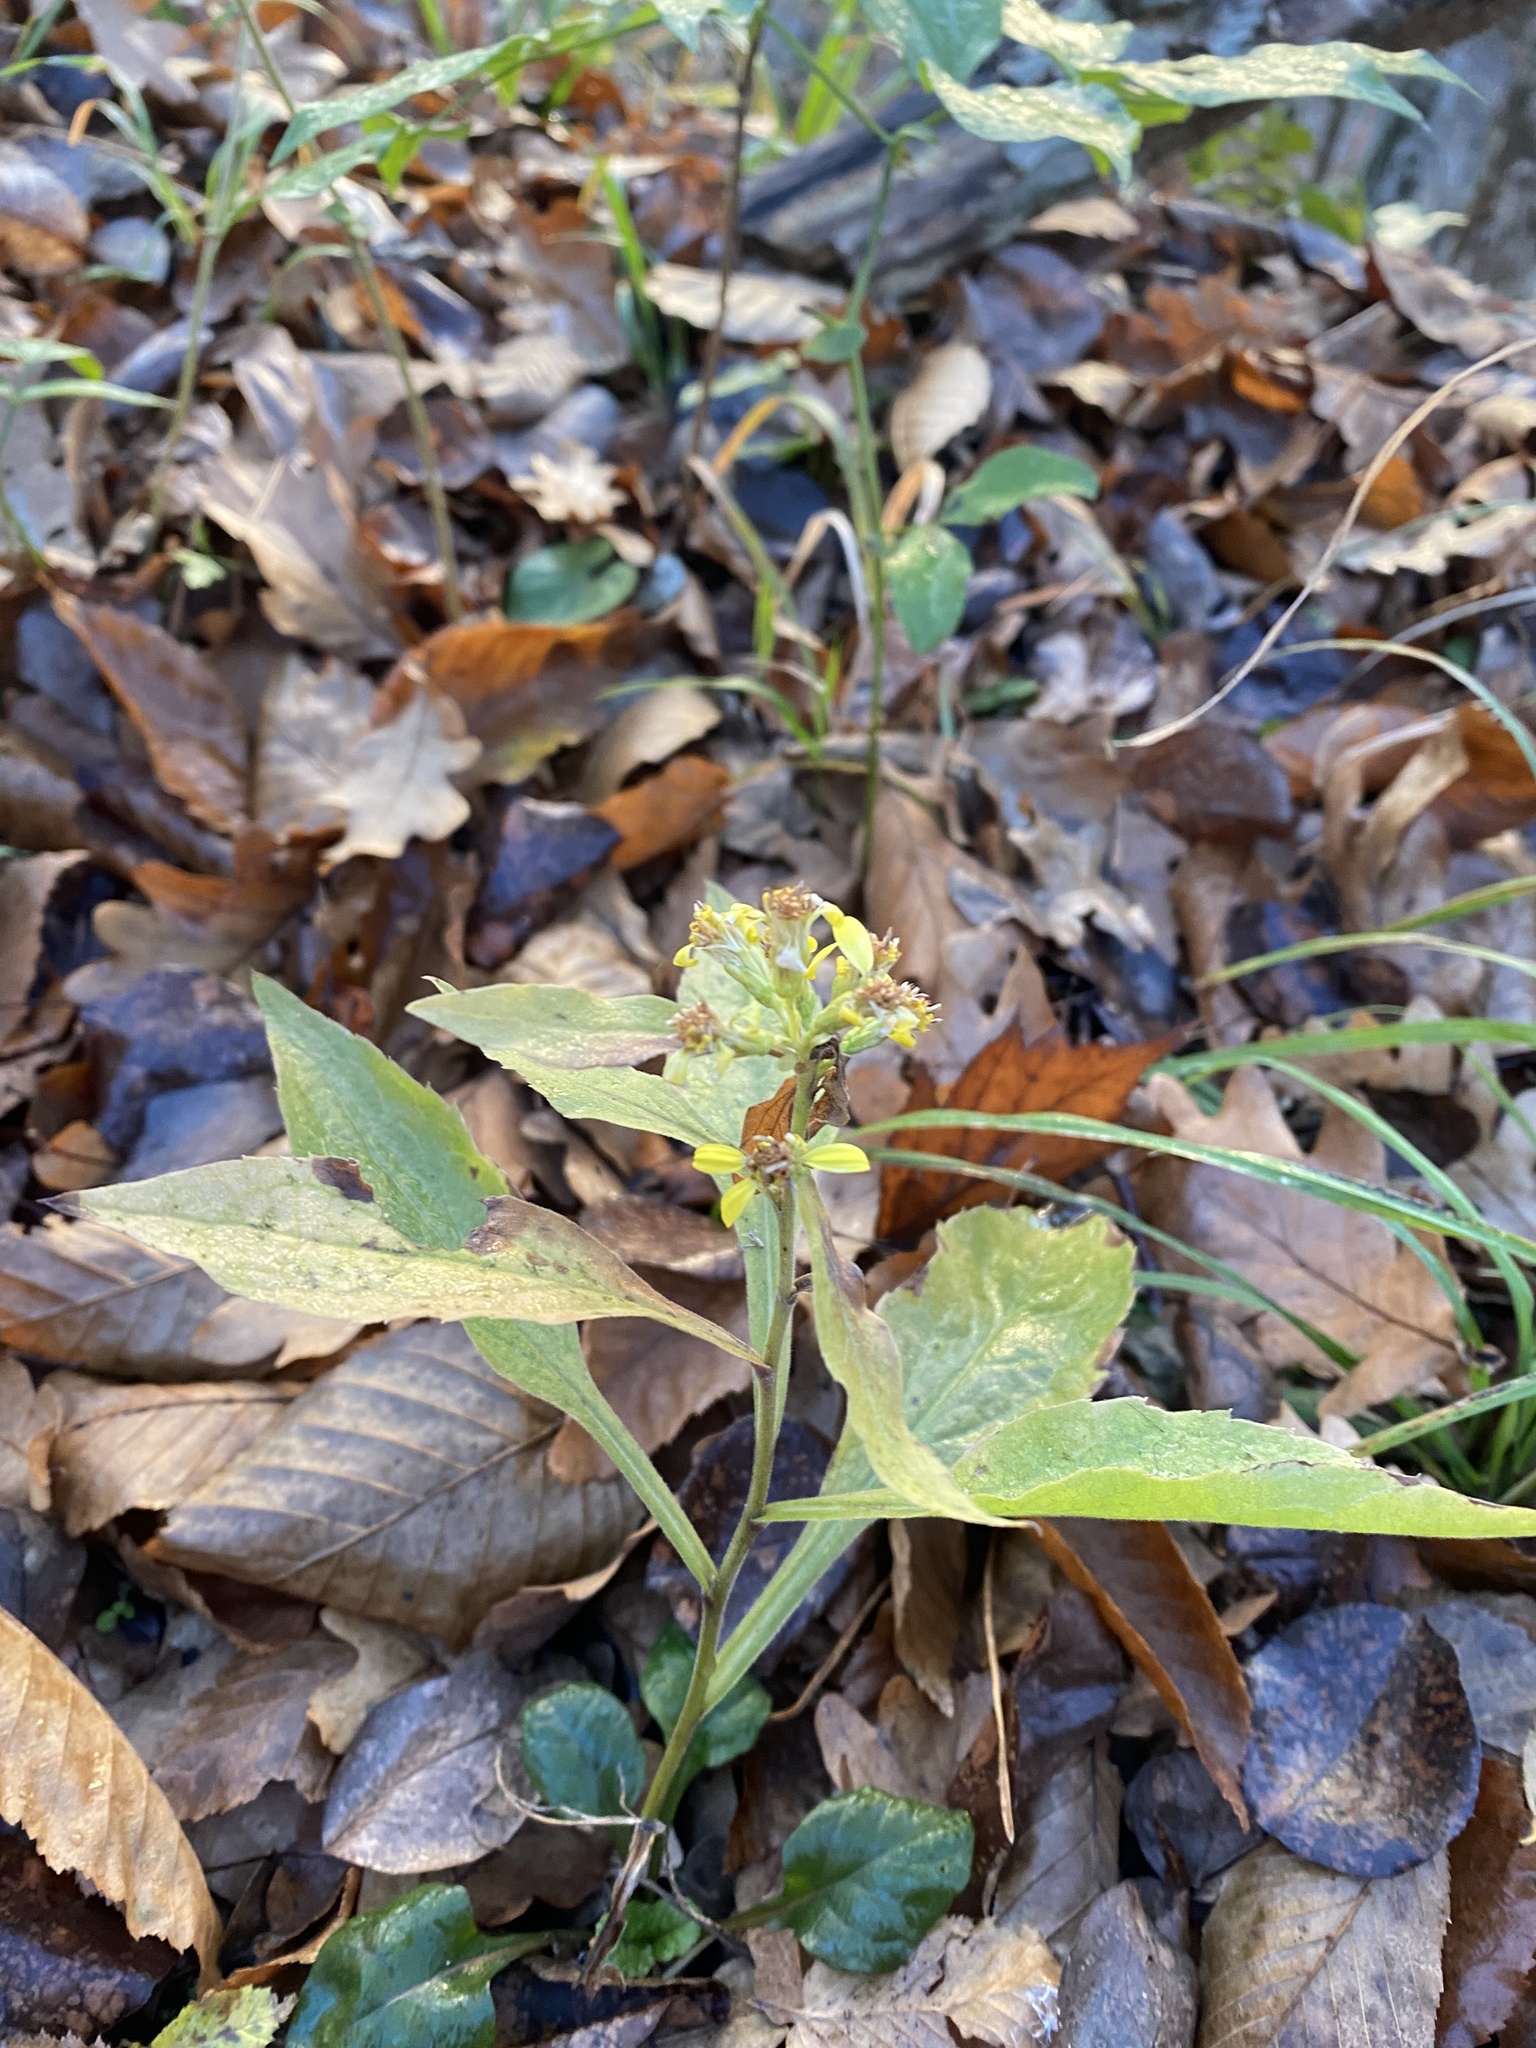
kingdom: Plantae
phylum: Tracheophyta
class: Magnoliopsida
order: Asterales
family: Asteraceae
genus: Solidago
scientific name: Solidago virgaurea
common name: Goldenrod
